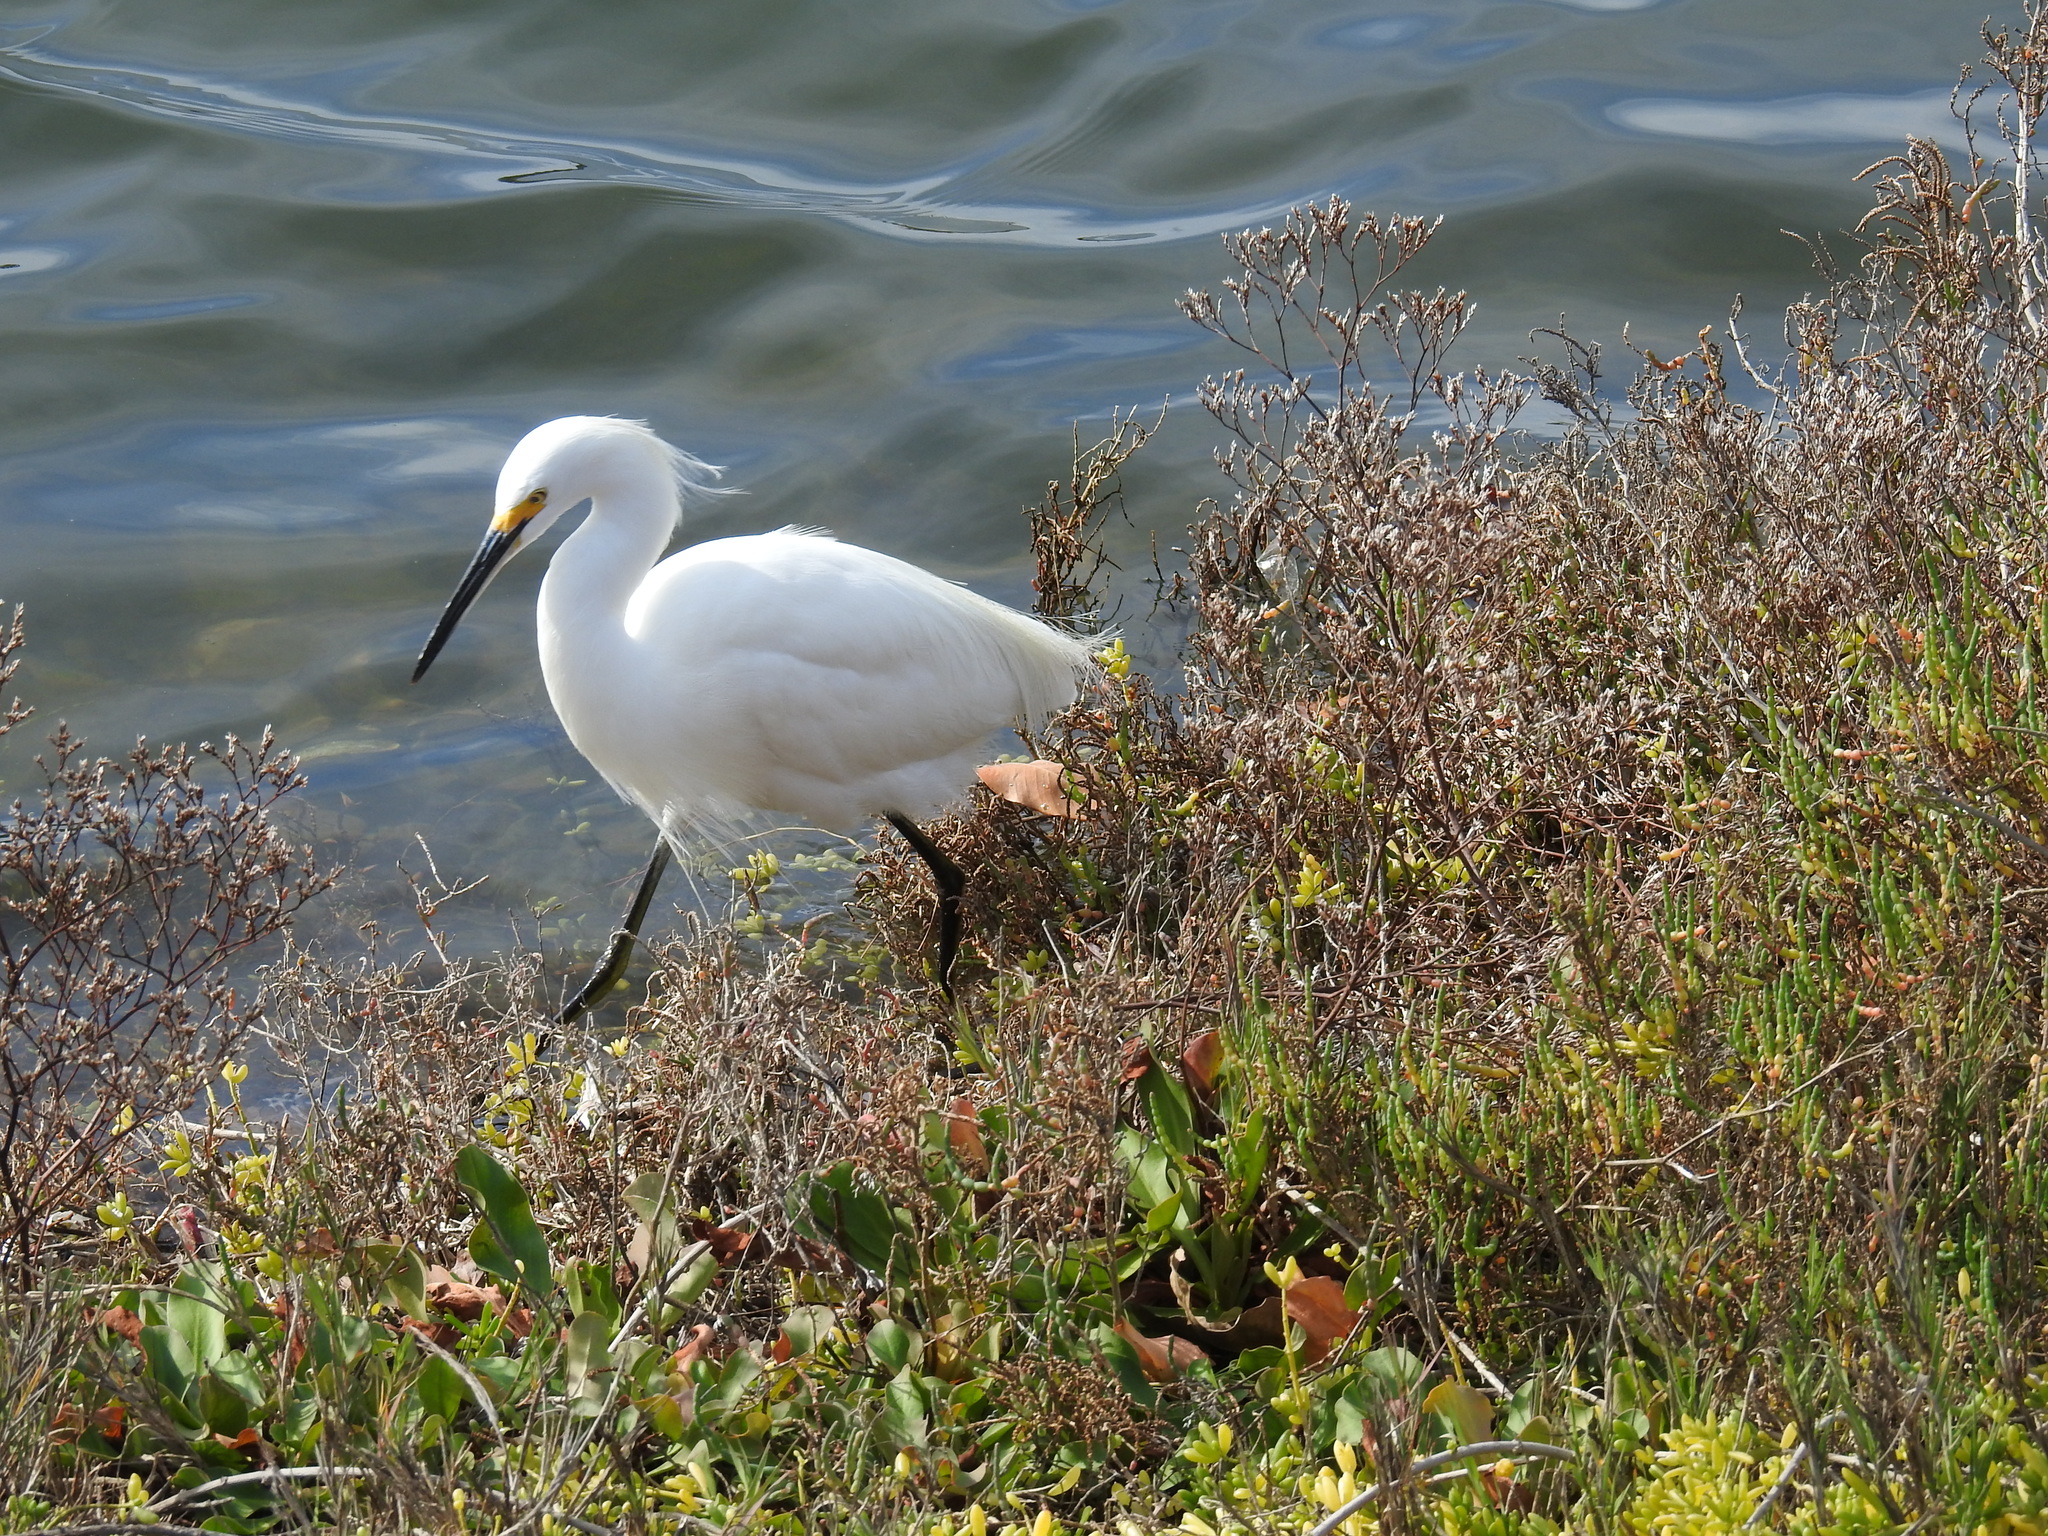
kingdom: Animalia
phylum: Chordata
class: Aves
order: Pelecaniformes
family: Ardeidae
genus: Egretta
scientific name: Egretta thula
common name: Snowy egret
